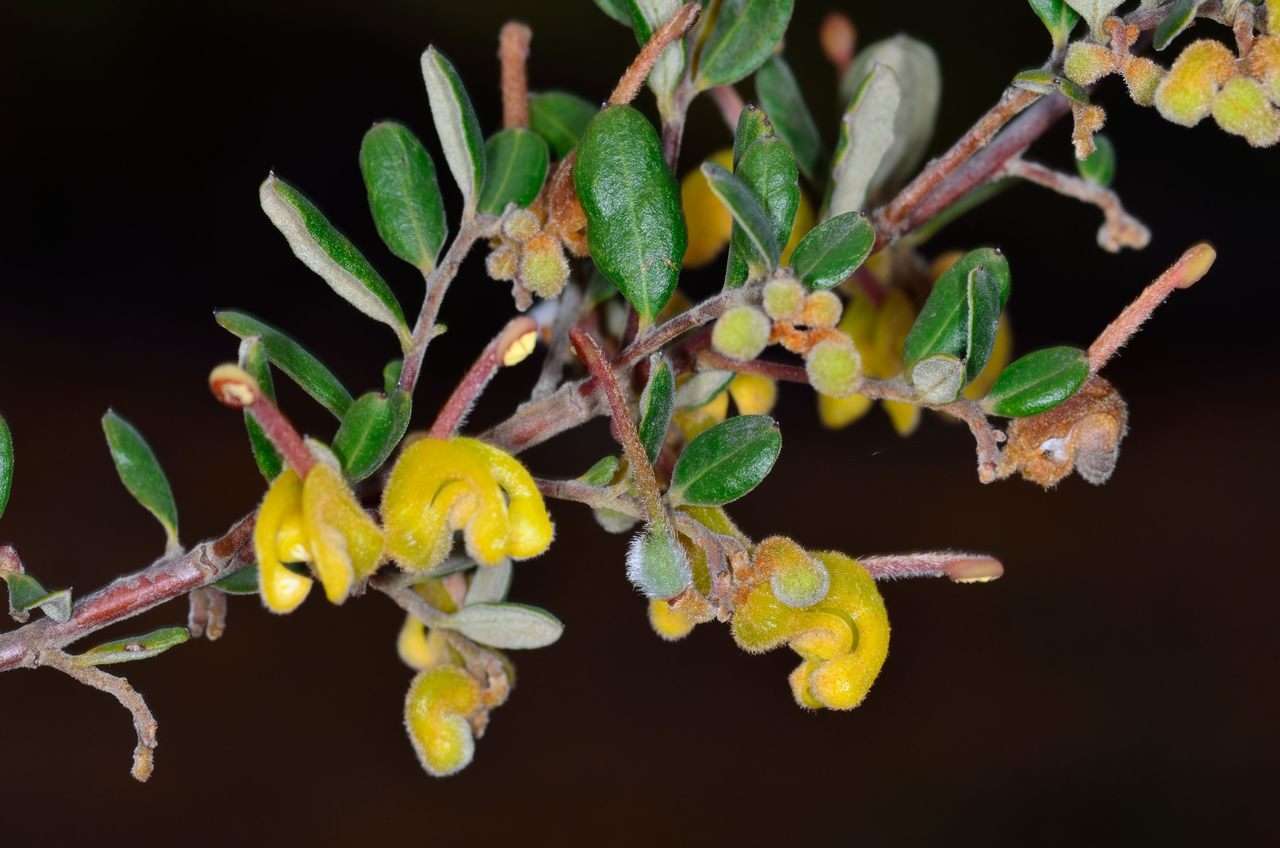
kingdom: Plantae
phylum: Tracheophyta
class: Magnoliopsida
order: Proteales
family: Proteaceae
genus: Grevillea
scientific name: Grevillea chrysophaea
